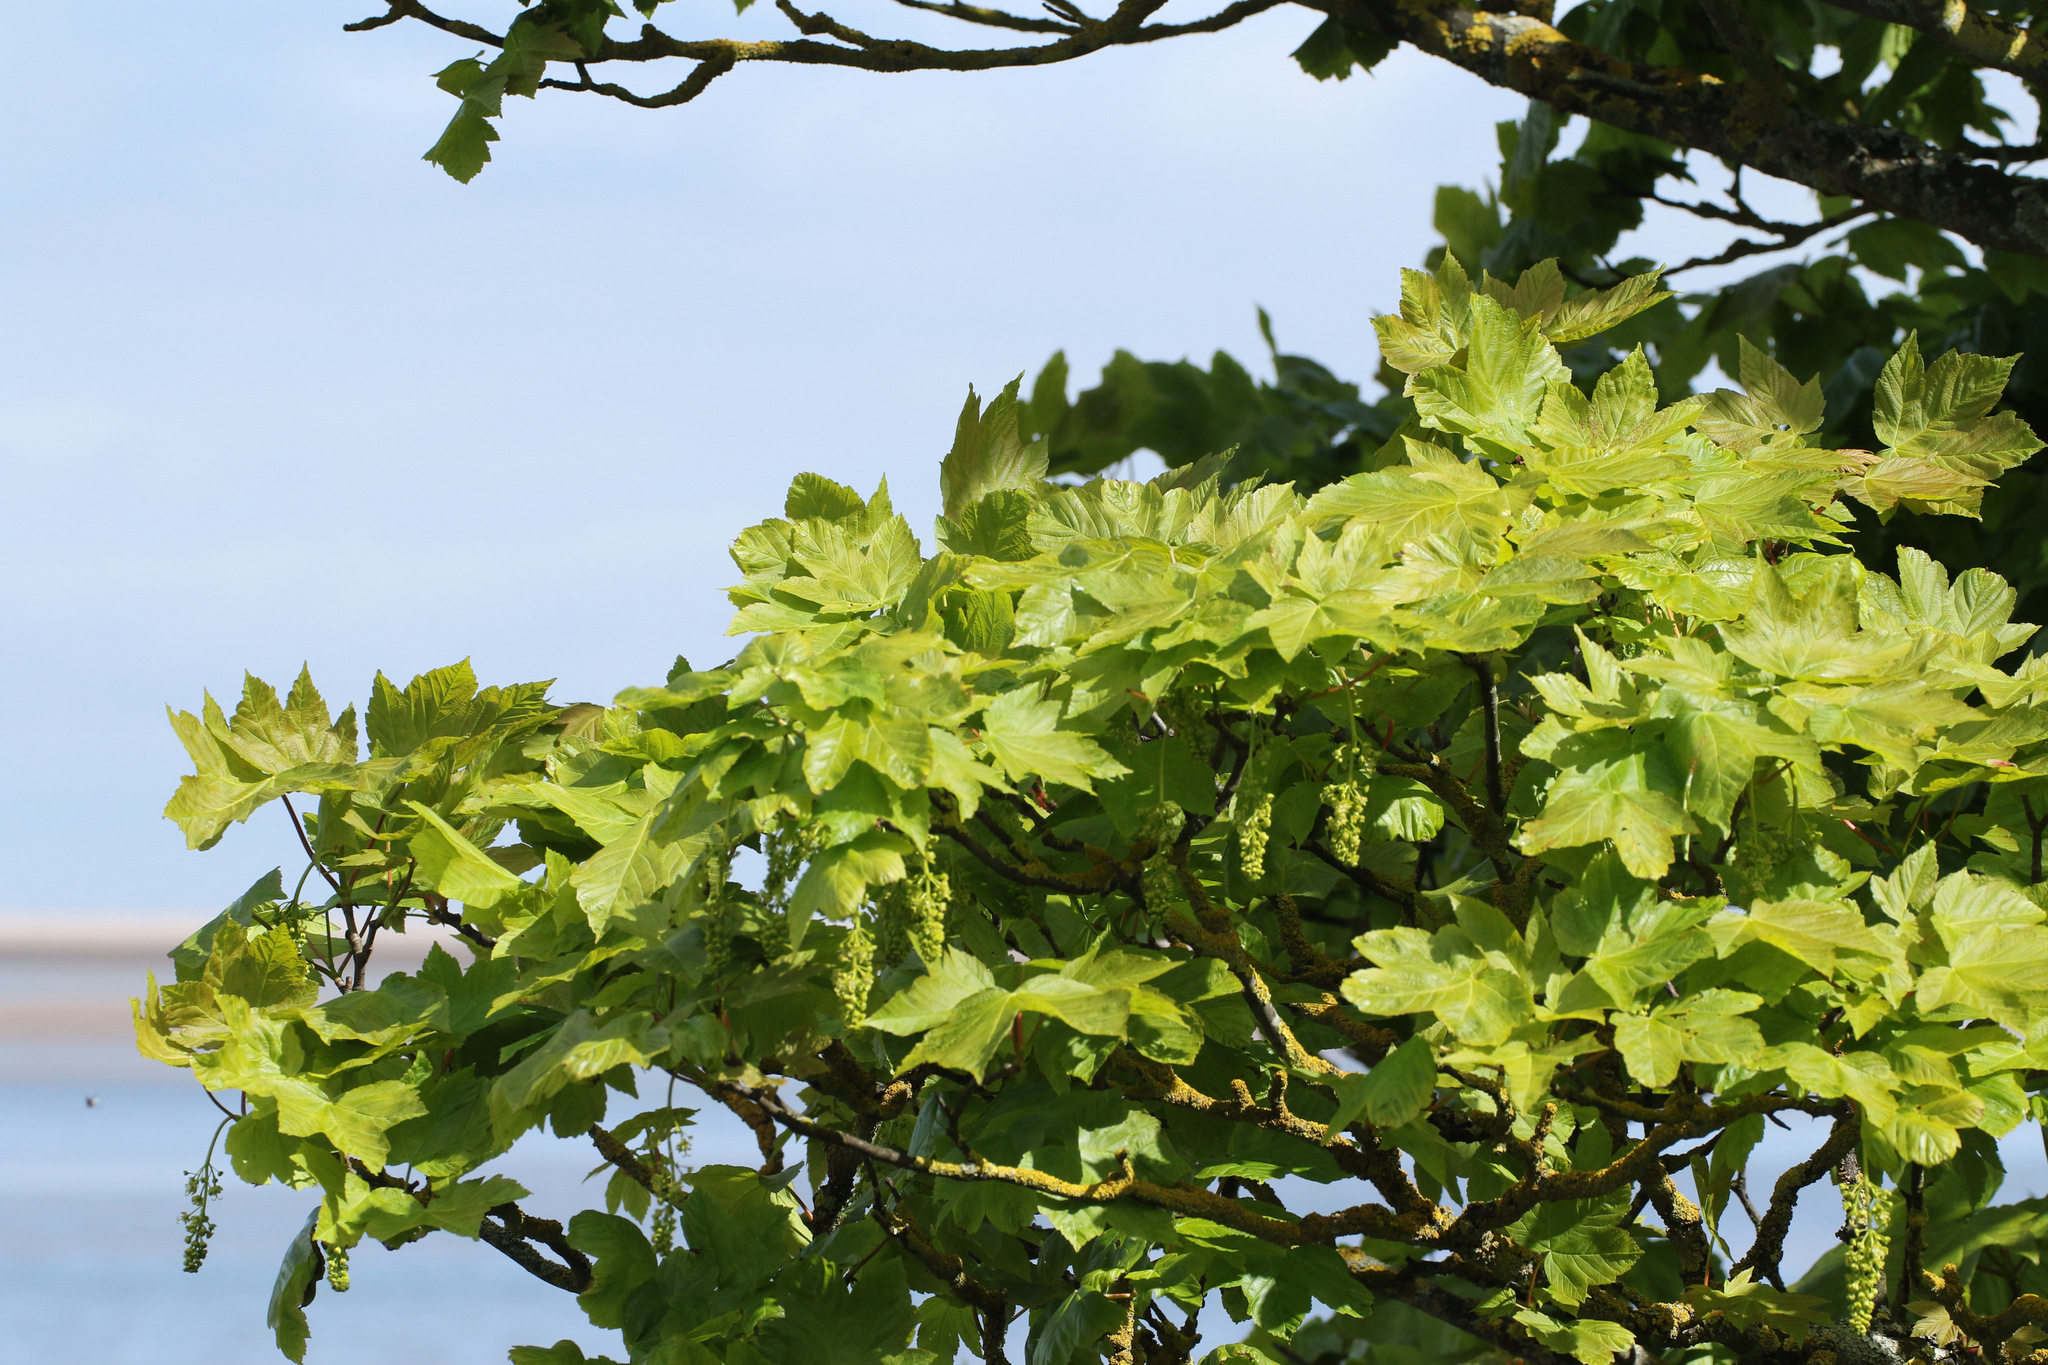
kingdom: Plantae
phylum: Tracheophyta
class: Magnoliopsida
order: Sapindales
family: Sapindaceae
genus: Acer
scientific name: Acer pseudoplatanus
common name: Sycamore
